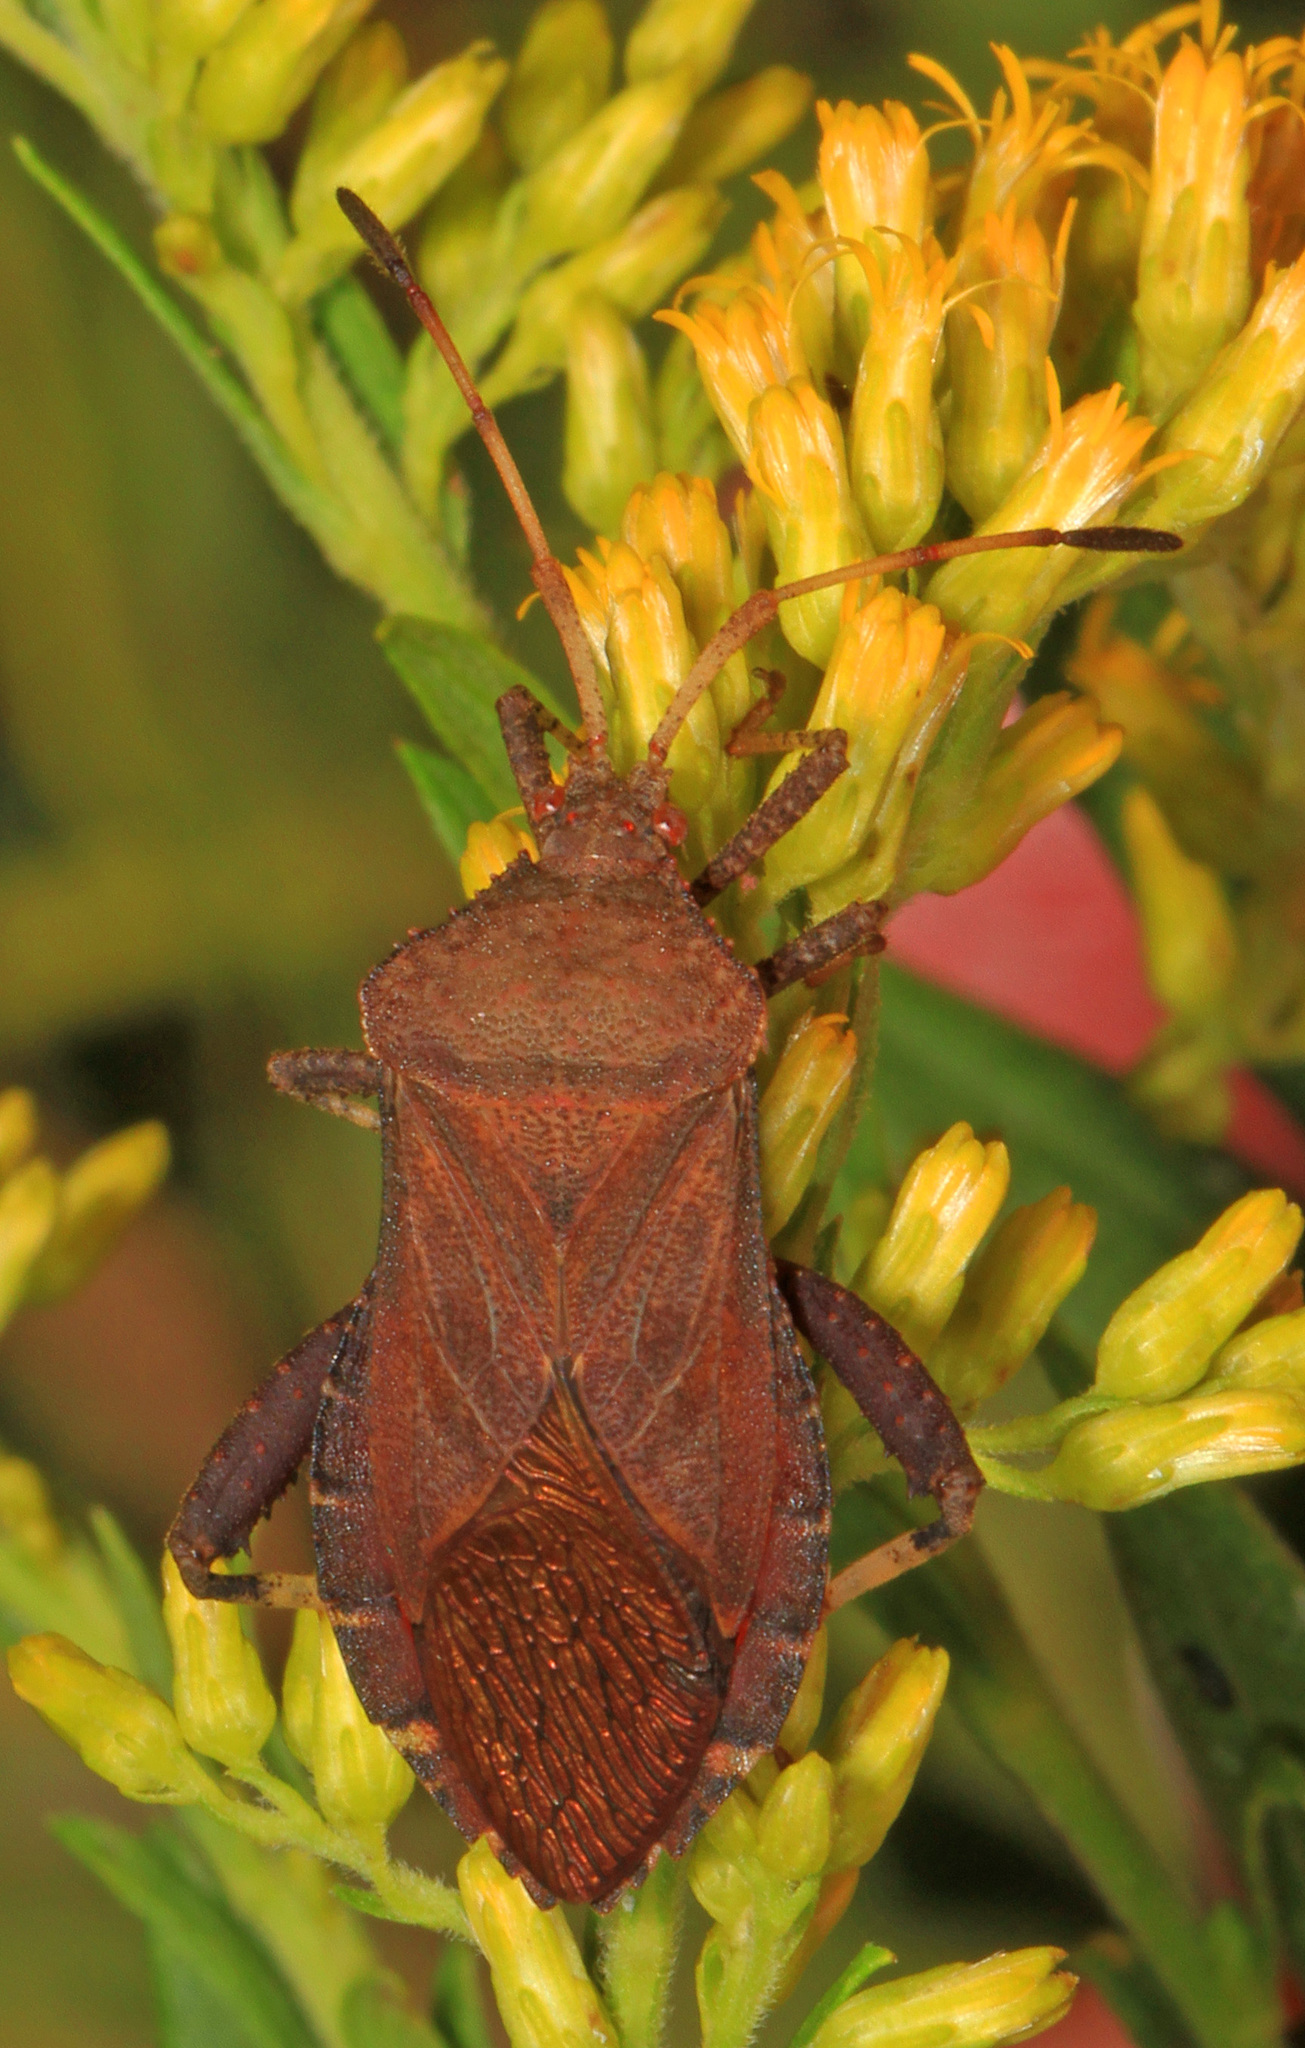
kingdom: Animalia
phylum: Arthropoda
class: Insecta
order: Hemiptera
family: Coreidae
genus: Euthochtha
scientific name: Euthochtha galeator
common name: Helmeted squash bug
